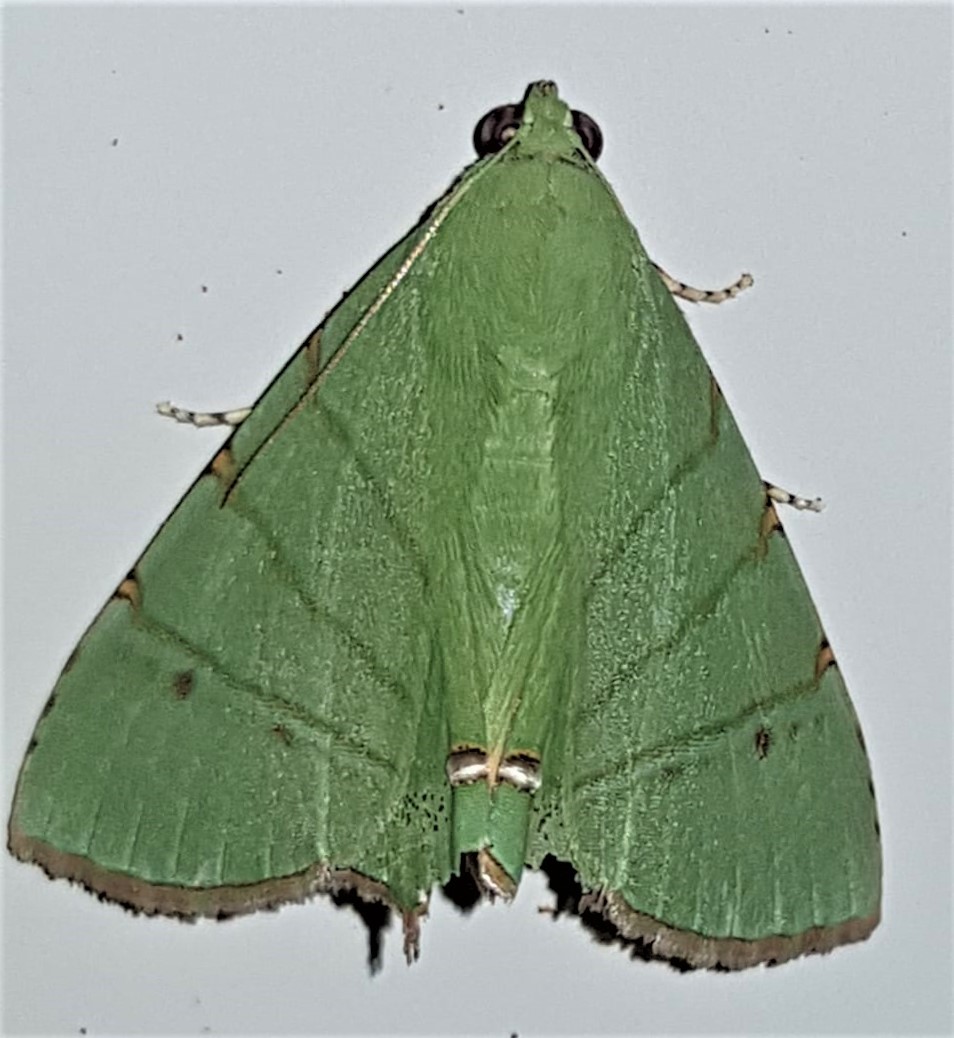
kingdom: Animalia
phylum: Arthropoda
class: Insecta
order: Lepidoptera
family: Erebidae
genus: Eulepidotis
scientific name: Eulepidotis chloris
